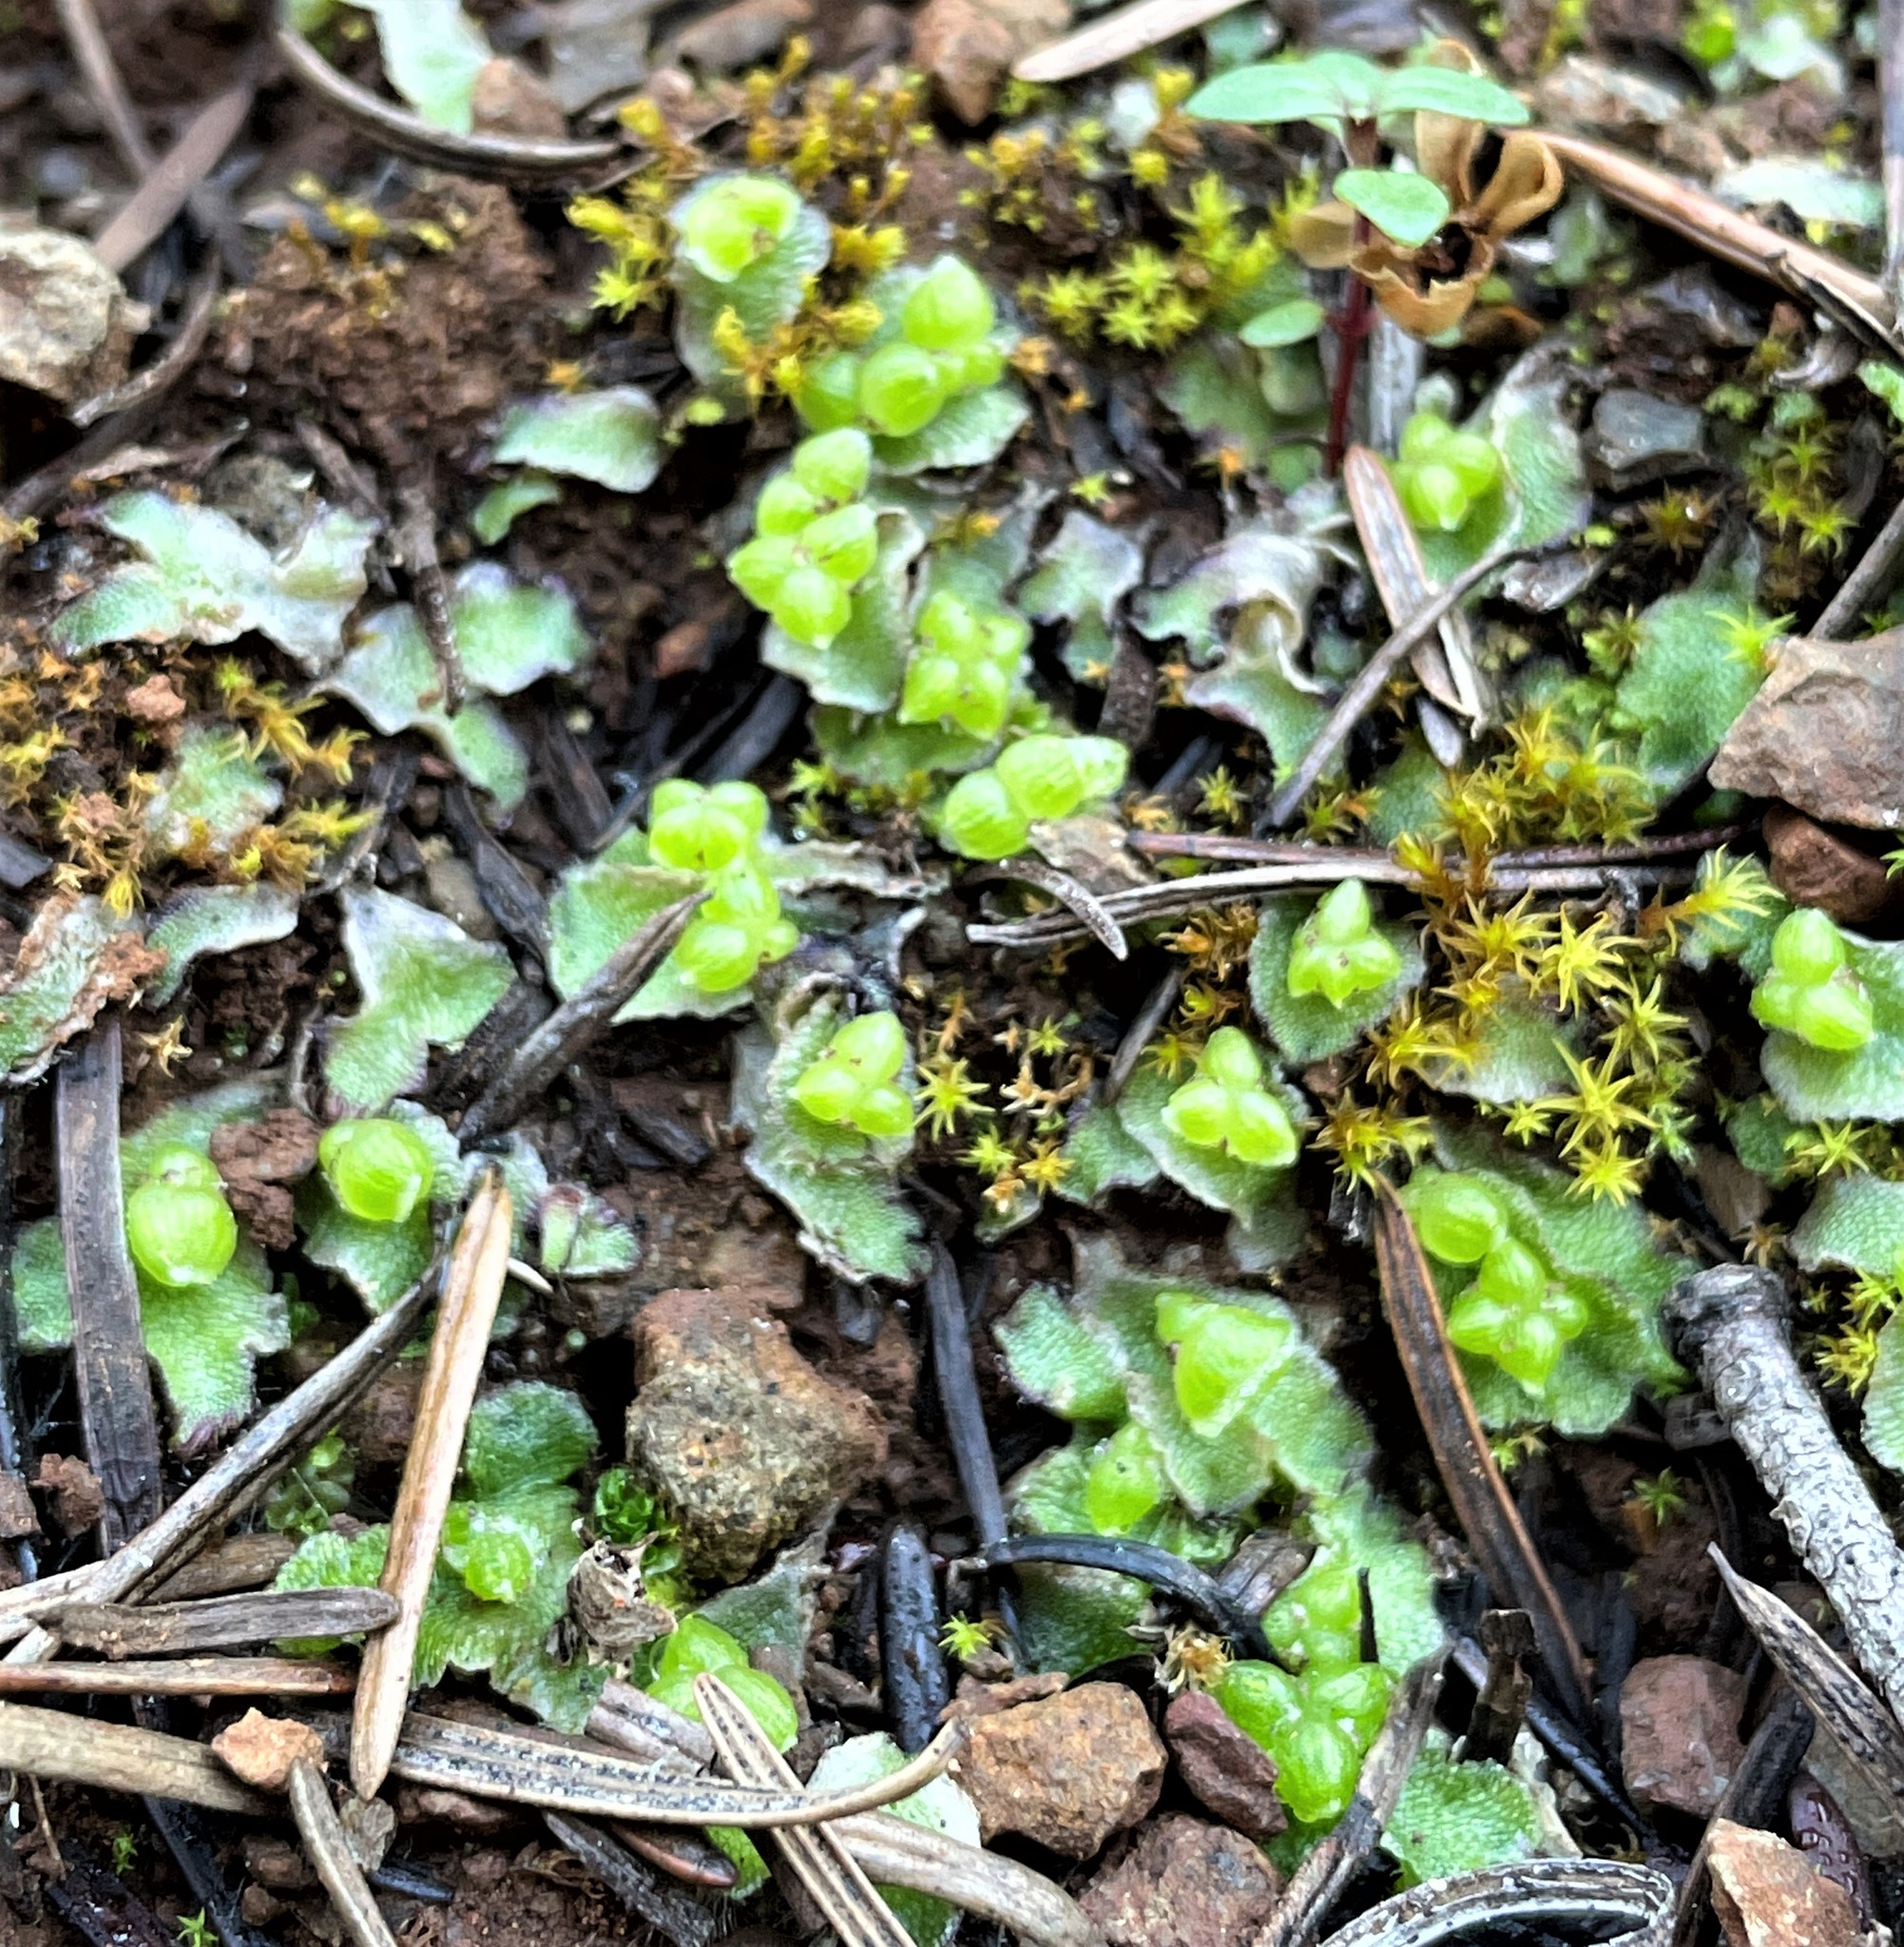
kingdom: Plantae
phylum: Marchantiophyta
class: Marchantiopsida
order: Marchantiales
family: Cleveaceae
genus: Clevea
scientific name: Clevea hyalina
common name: Hyaline liverwort
